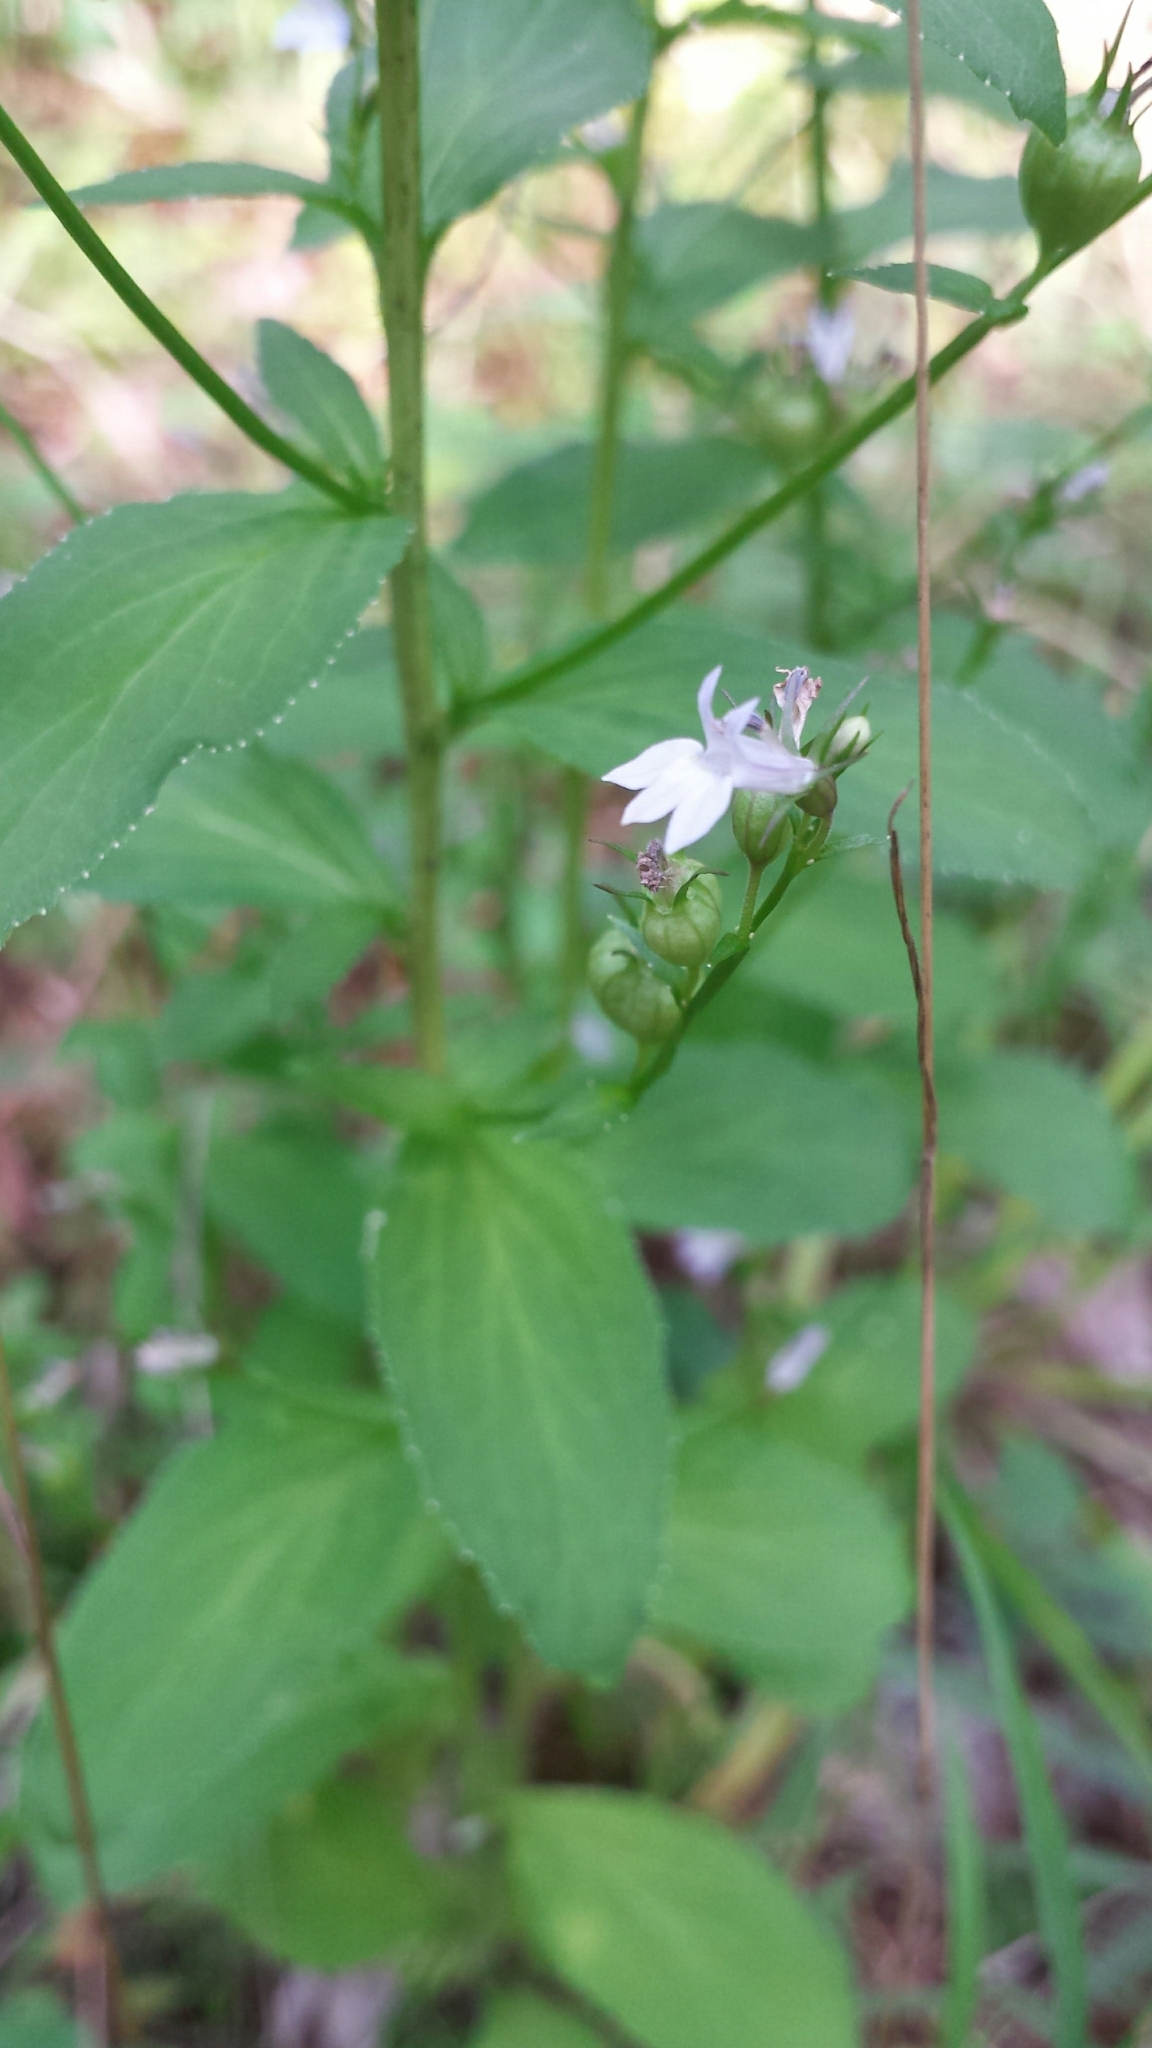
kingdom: Plantae
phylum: Tracheophyta
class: Magnoliopsida
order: Asterales
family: Campanulaceae
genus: Lobelia
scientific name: Lobelia inflata
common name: Indian tobacco
